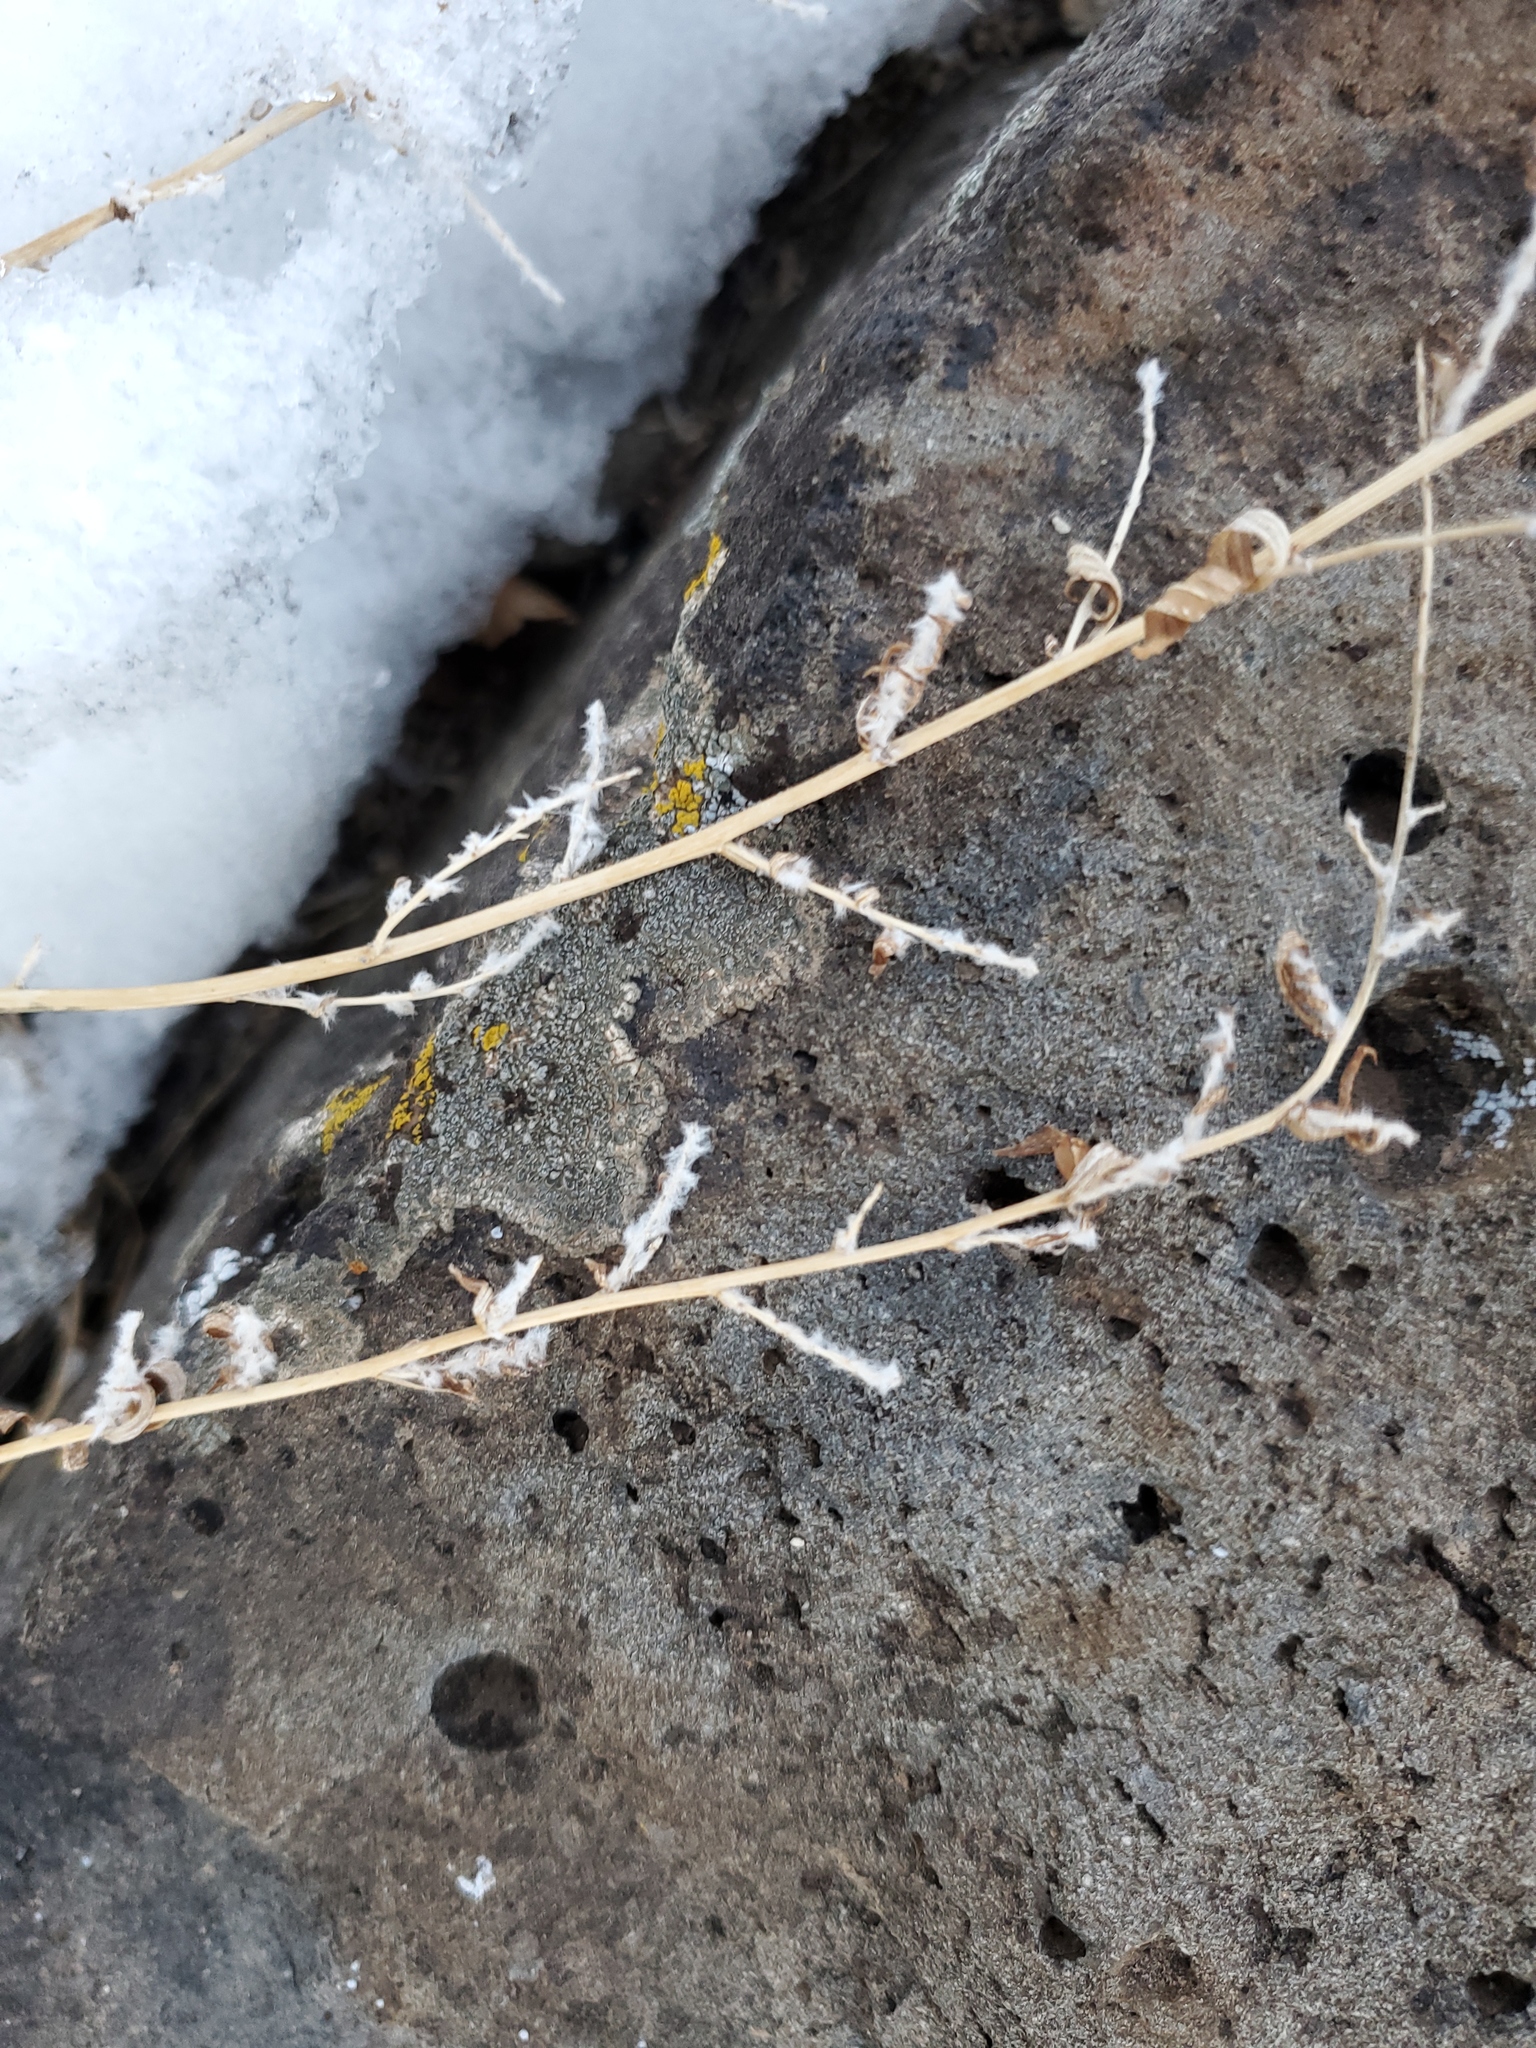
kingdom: Plantae
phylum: Tracheophyta
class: Magnoliopsida
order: Caryophyllales
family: Amaranthaceae
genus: Bassia
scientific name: Bassia scoparia
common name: Belvedere
